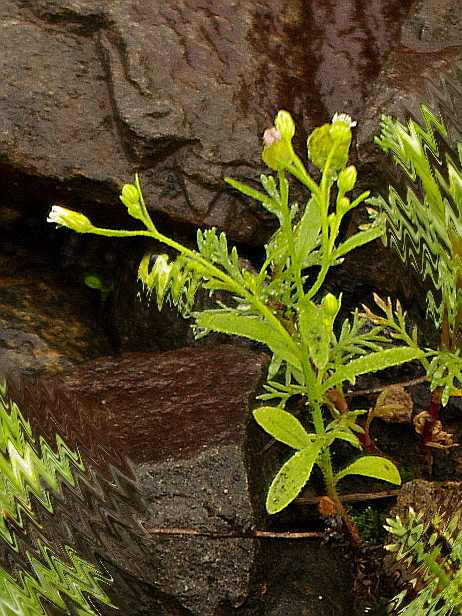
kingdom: Plantae
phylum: Tracheophyta
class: Magnoliopsida
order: Asterales
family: Asteraceae
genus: Erigeron
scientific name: Erigeron canadensis
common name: Canadian fleabane
